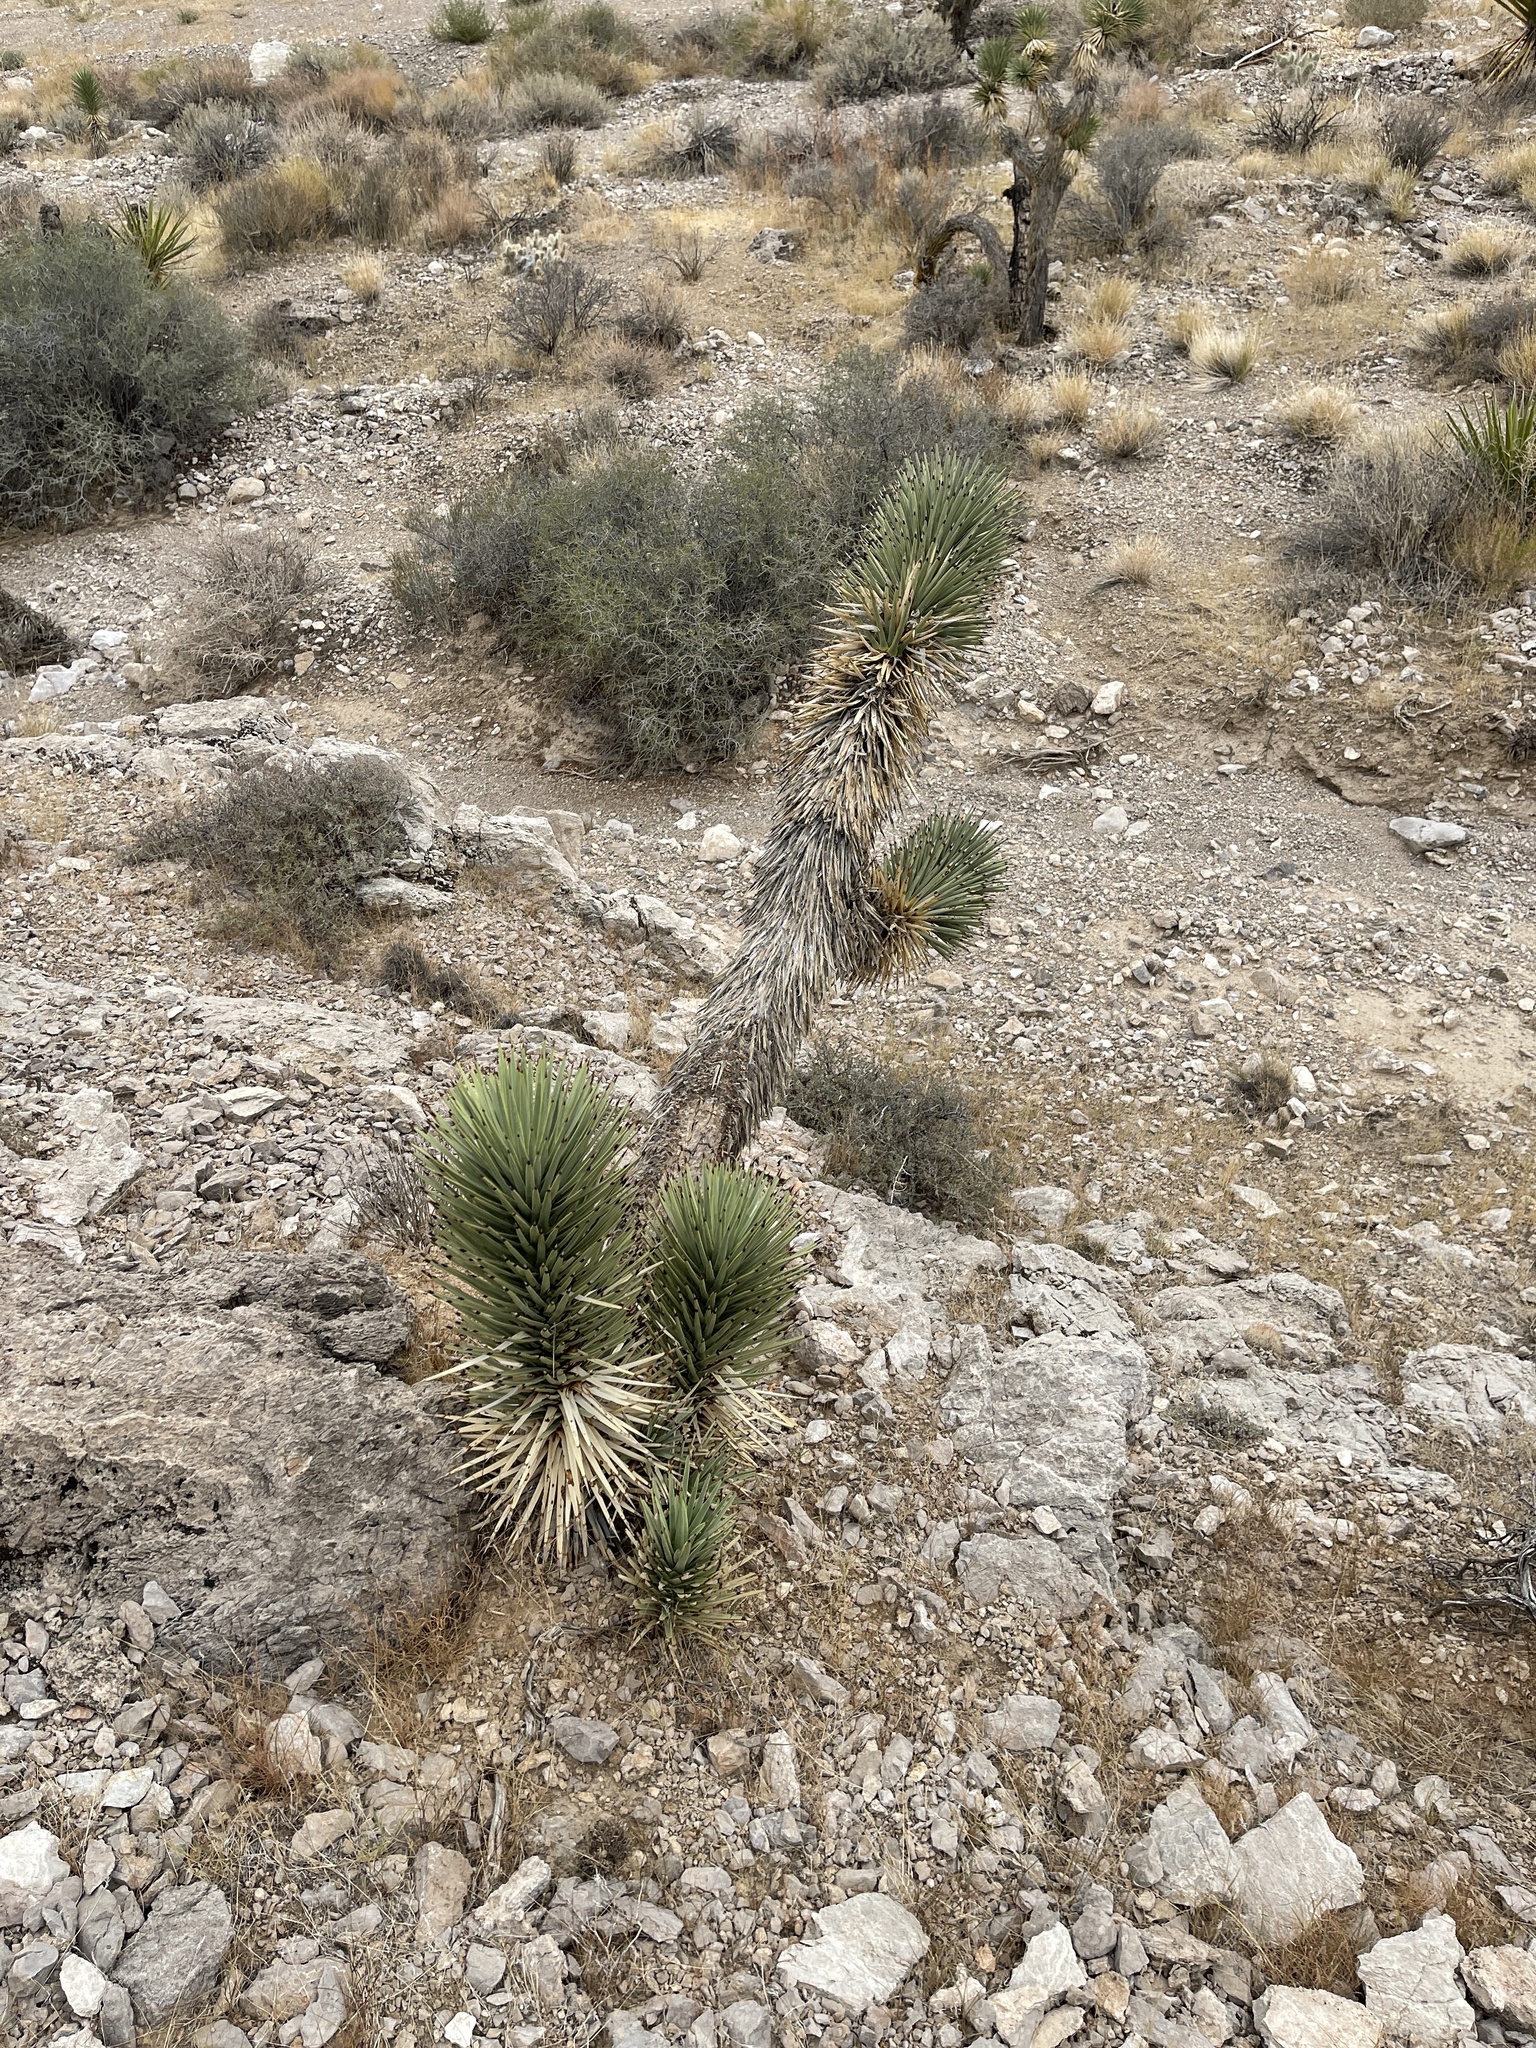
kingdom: Plantae
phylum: Tracheophyta
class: Liliopsida
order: Asparagales
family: Asparagaceae
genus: Yucca
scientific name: Yucca brevifolia
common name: Joshua tree
